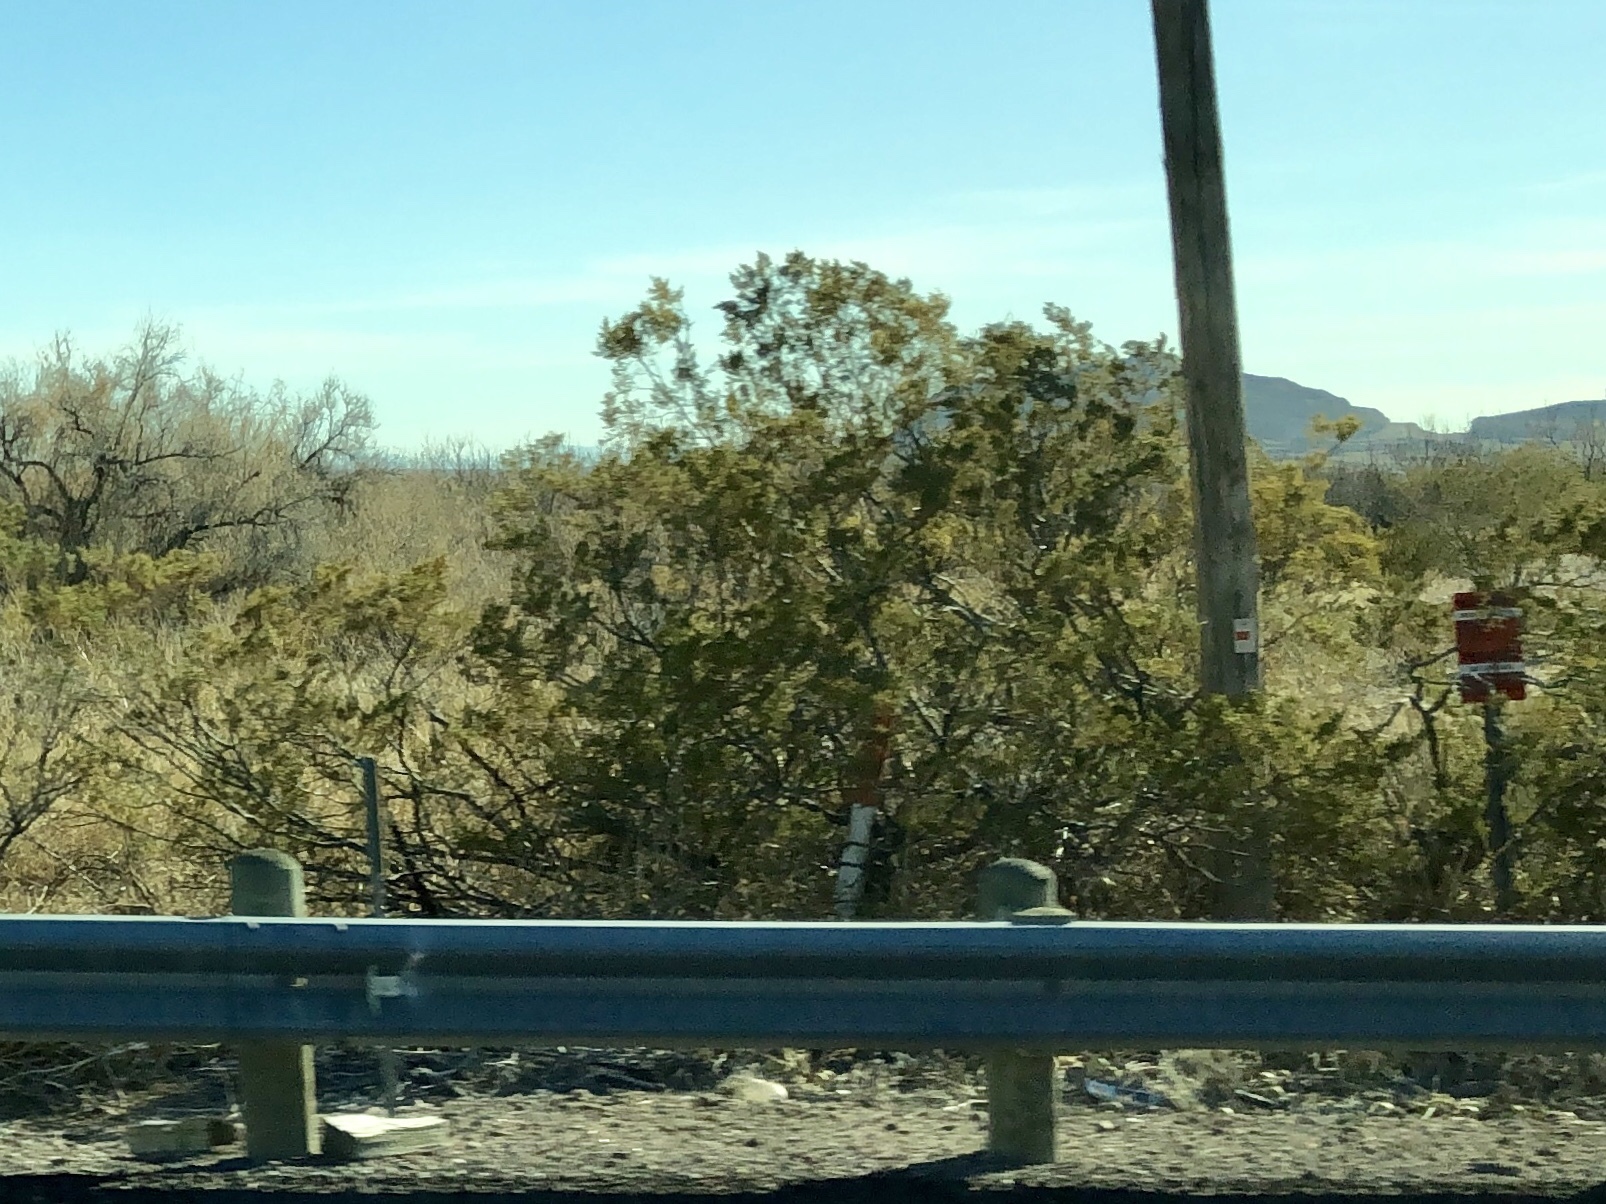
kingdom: Plantae
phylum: Tracheophyta
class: Magnoliopsida
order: Zygophyllales
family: Zygophyllaceae
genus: Larrea
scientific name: Larrea tridentata
